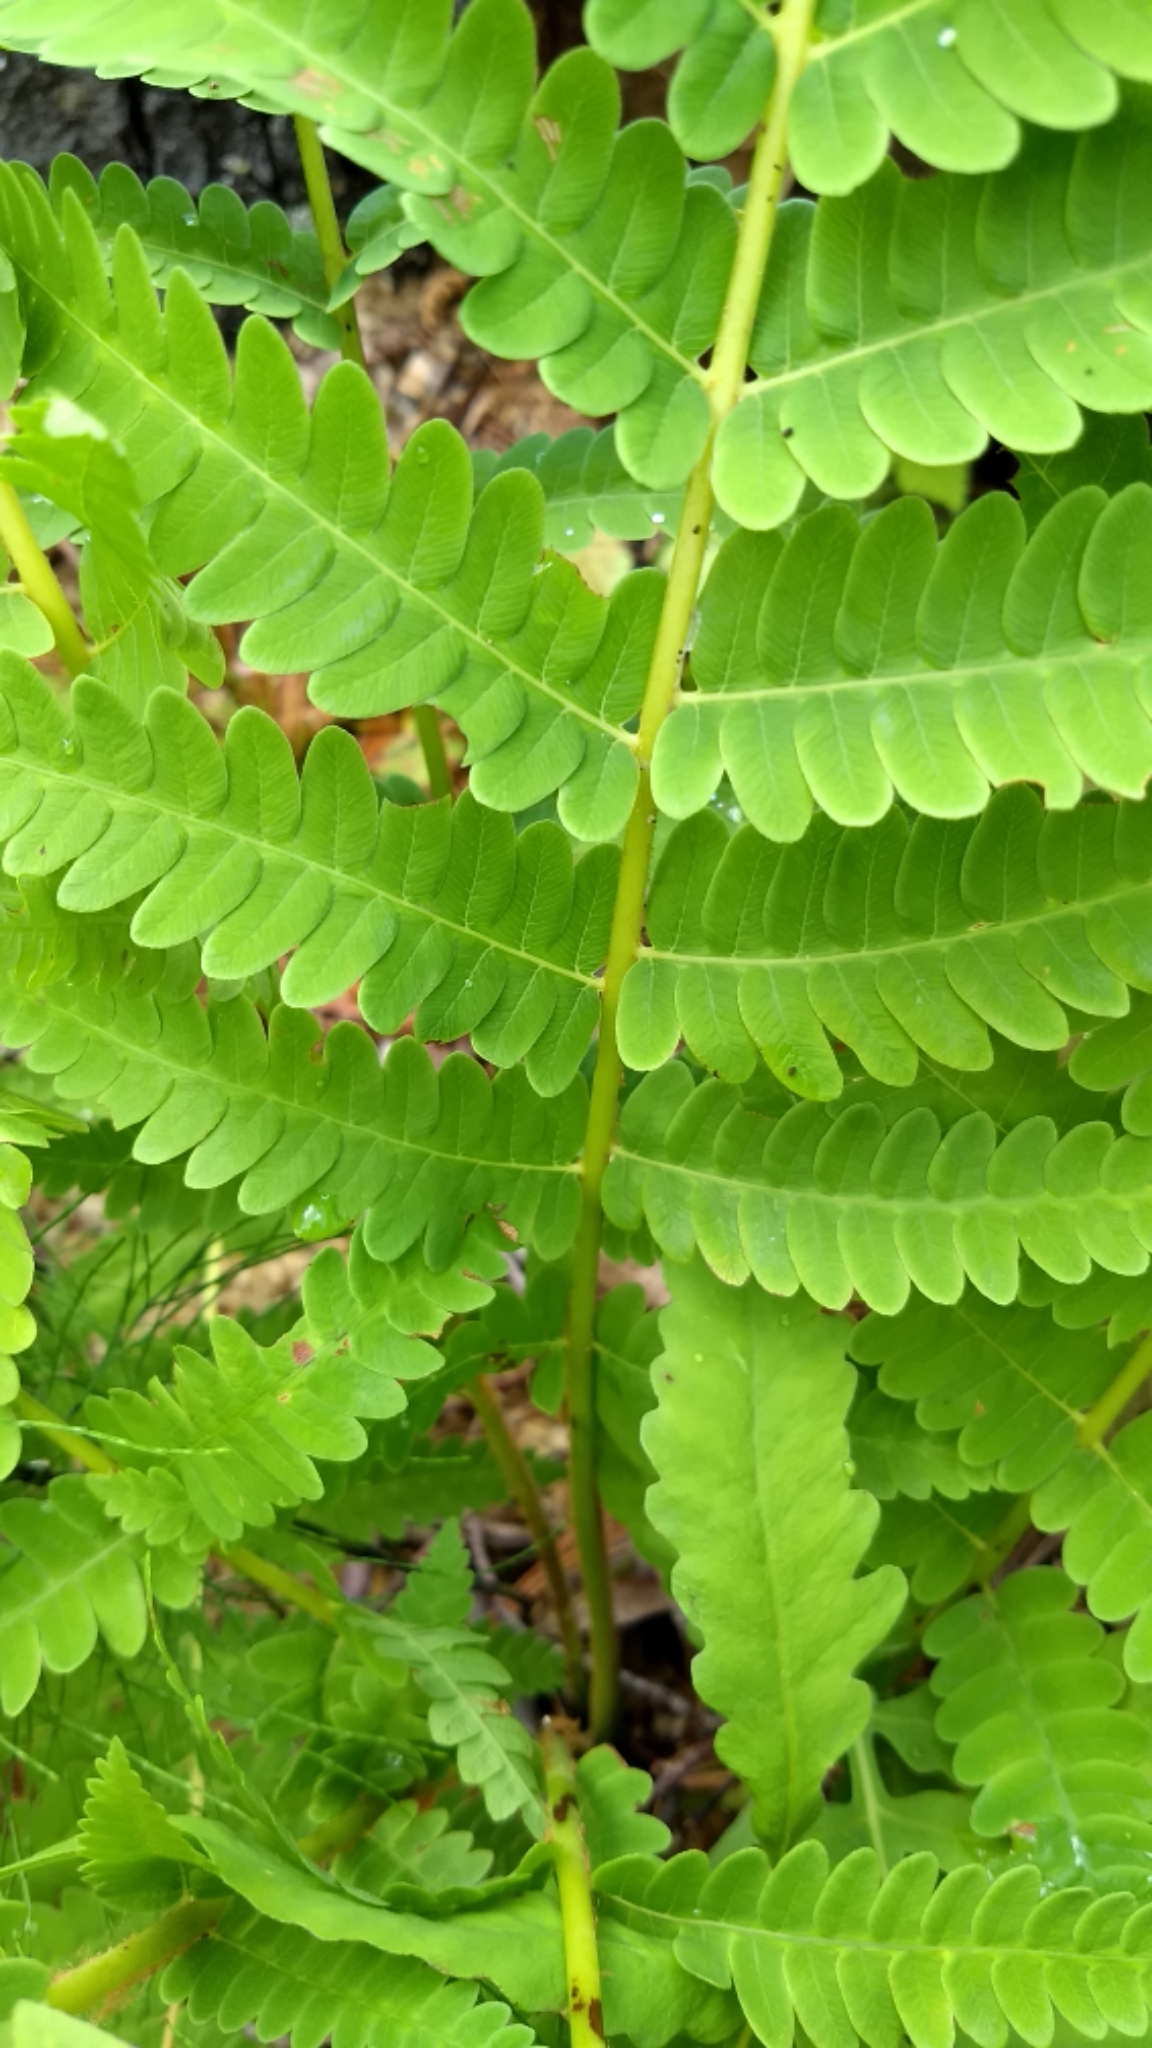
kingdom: Plantae
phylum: Tracheophyta
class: Polypodiopsida
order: Osmundales
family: Osmundaceae
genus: Claytosmunda
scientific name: Claytosmunda claytoniana
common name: Clayton's fern
